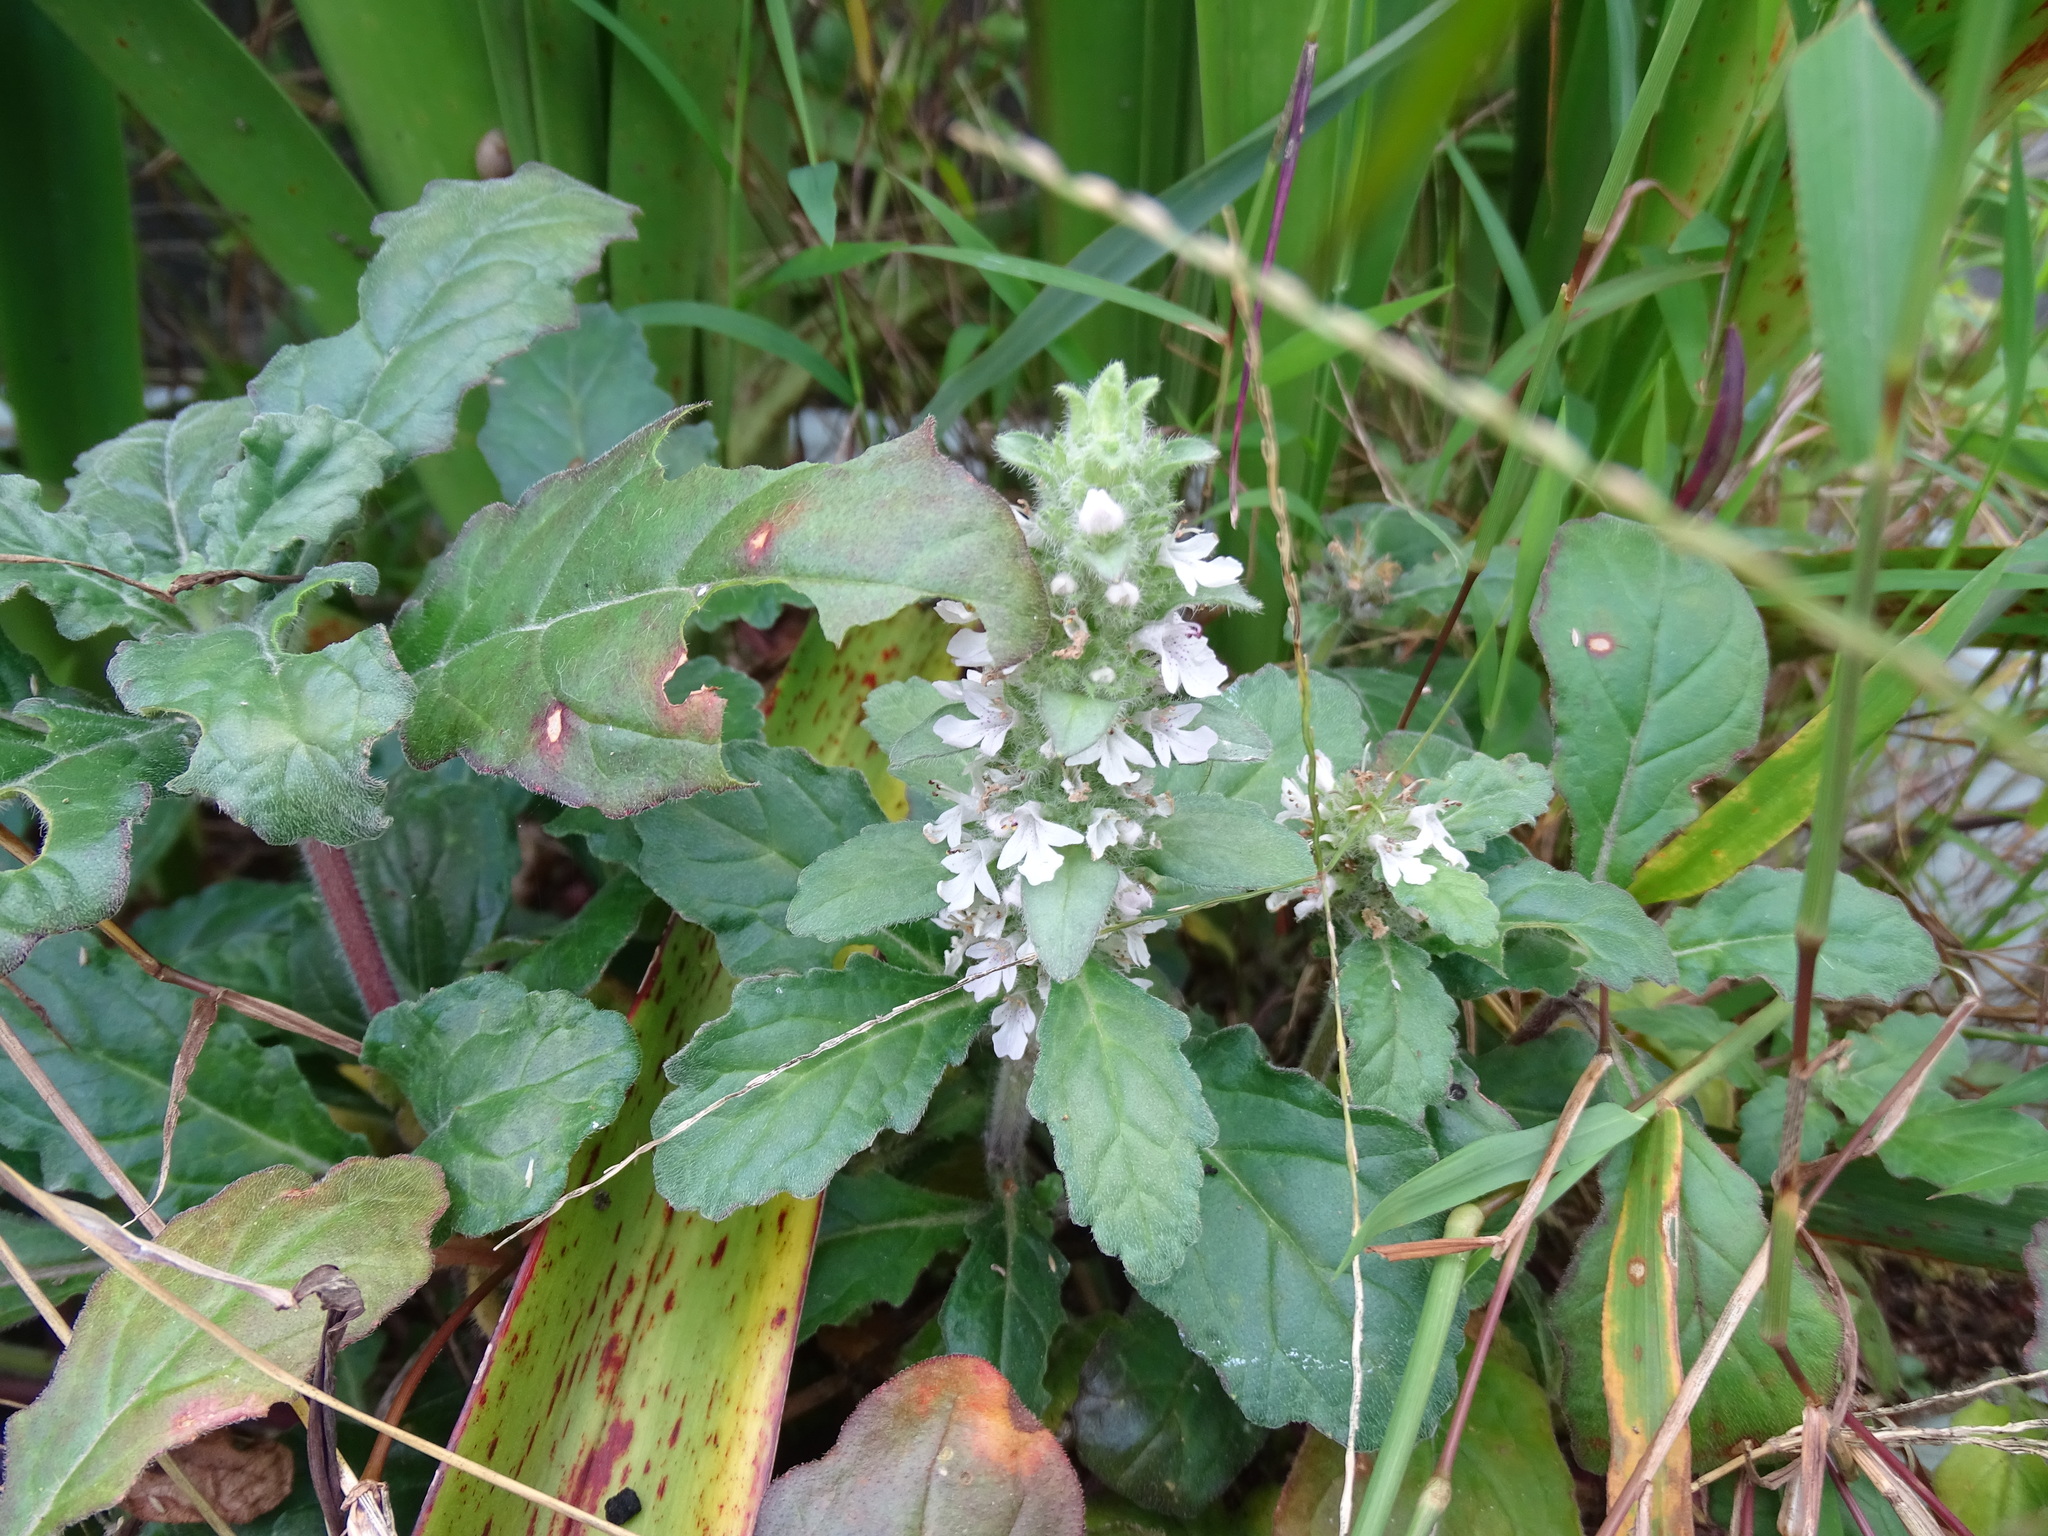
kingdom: Plantae
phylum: Tracheophyta
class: Magnoliopsida
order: Lamiales
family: Lamiaceae
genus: Ajuga
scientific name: Ajuga taiwanensis
